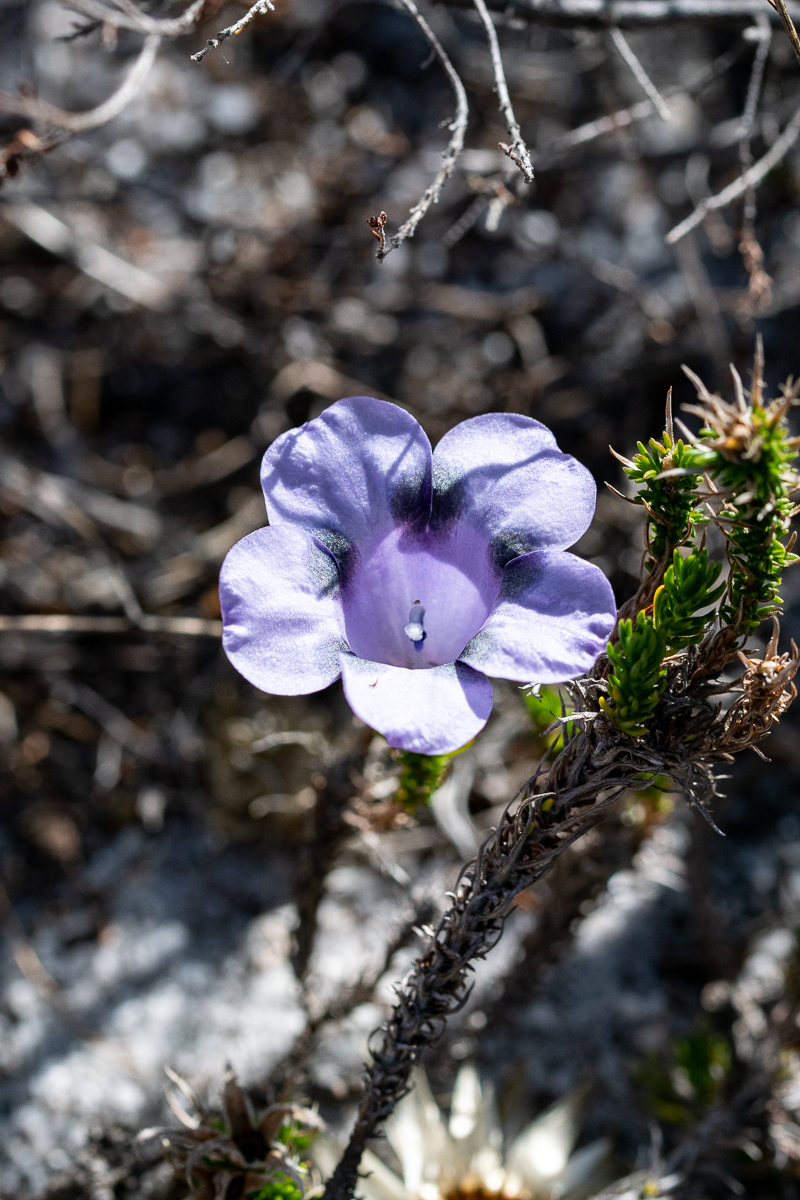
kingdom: Plantae
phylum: Tracheophyta
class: Magnoliopsida
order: Asterales
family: Campanulaceae
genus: Roella
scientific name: Roella maculata
